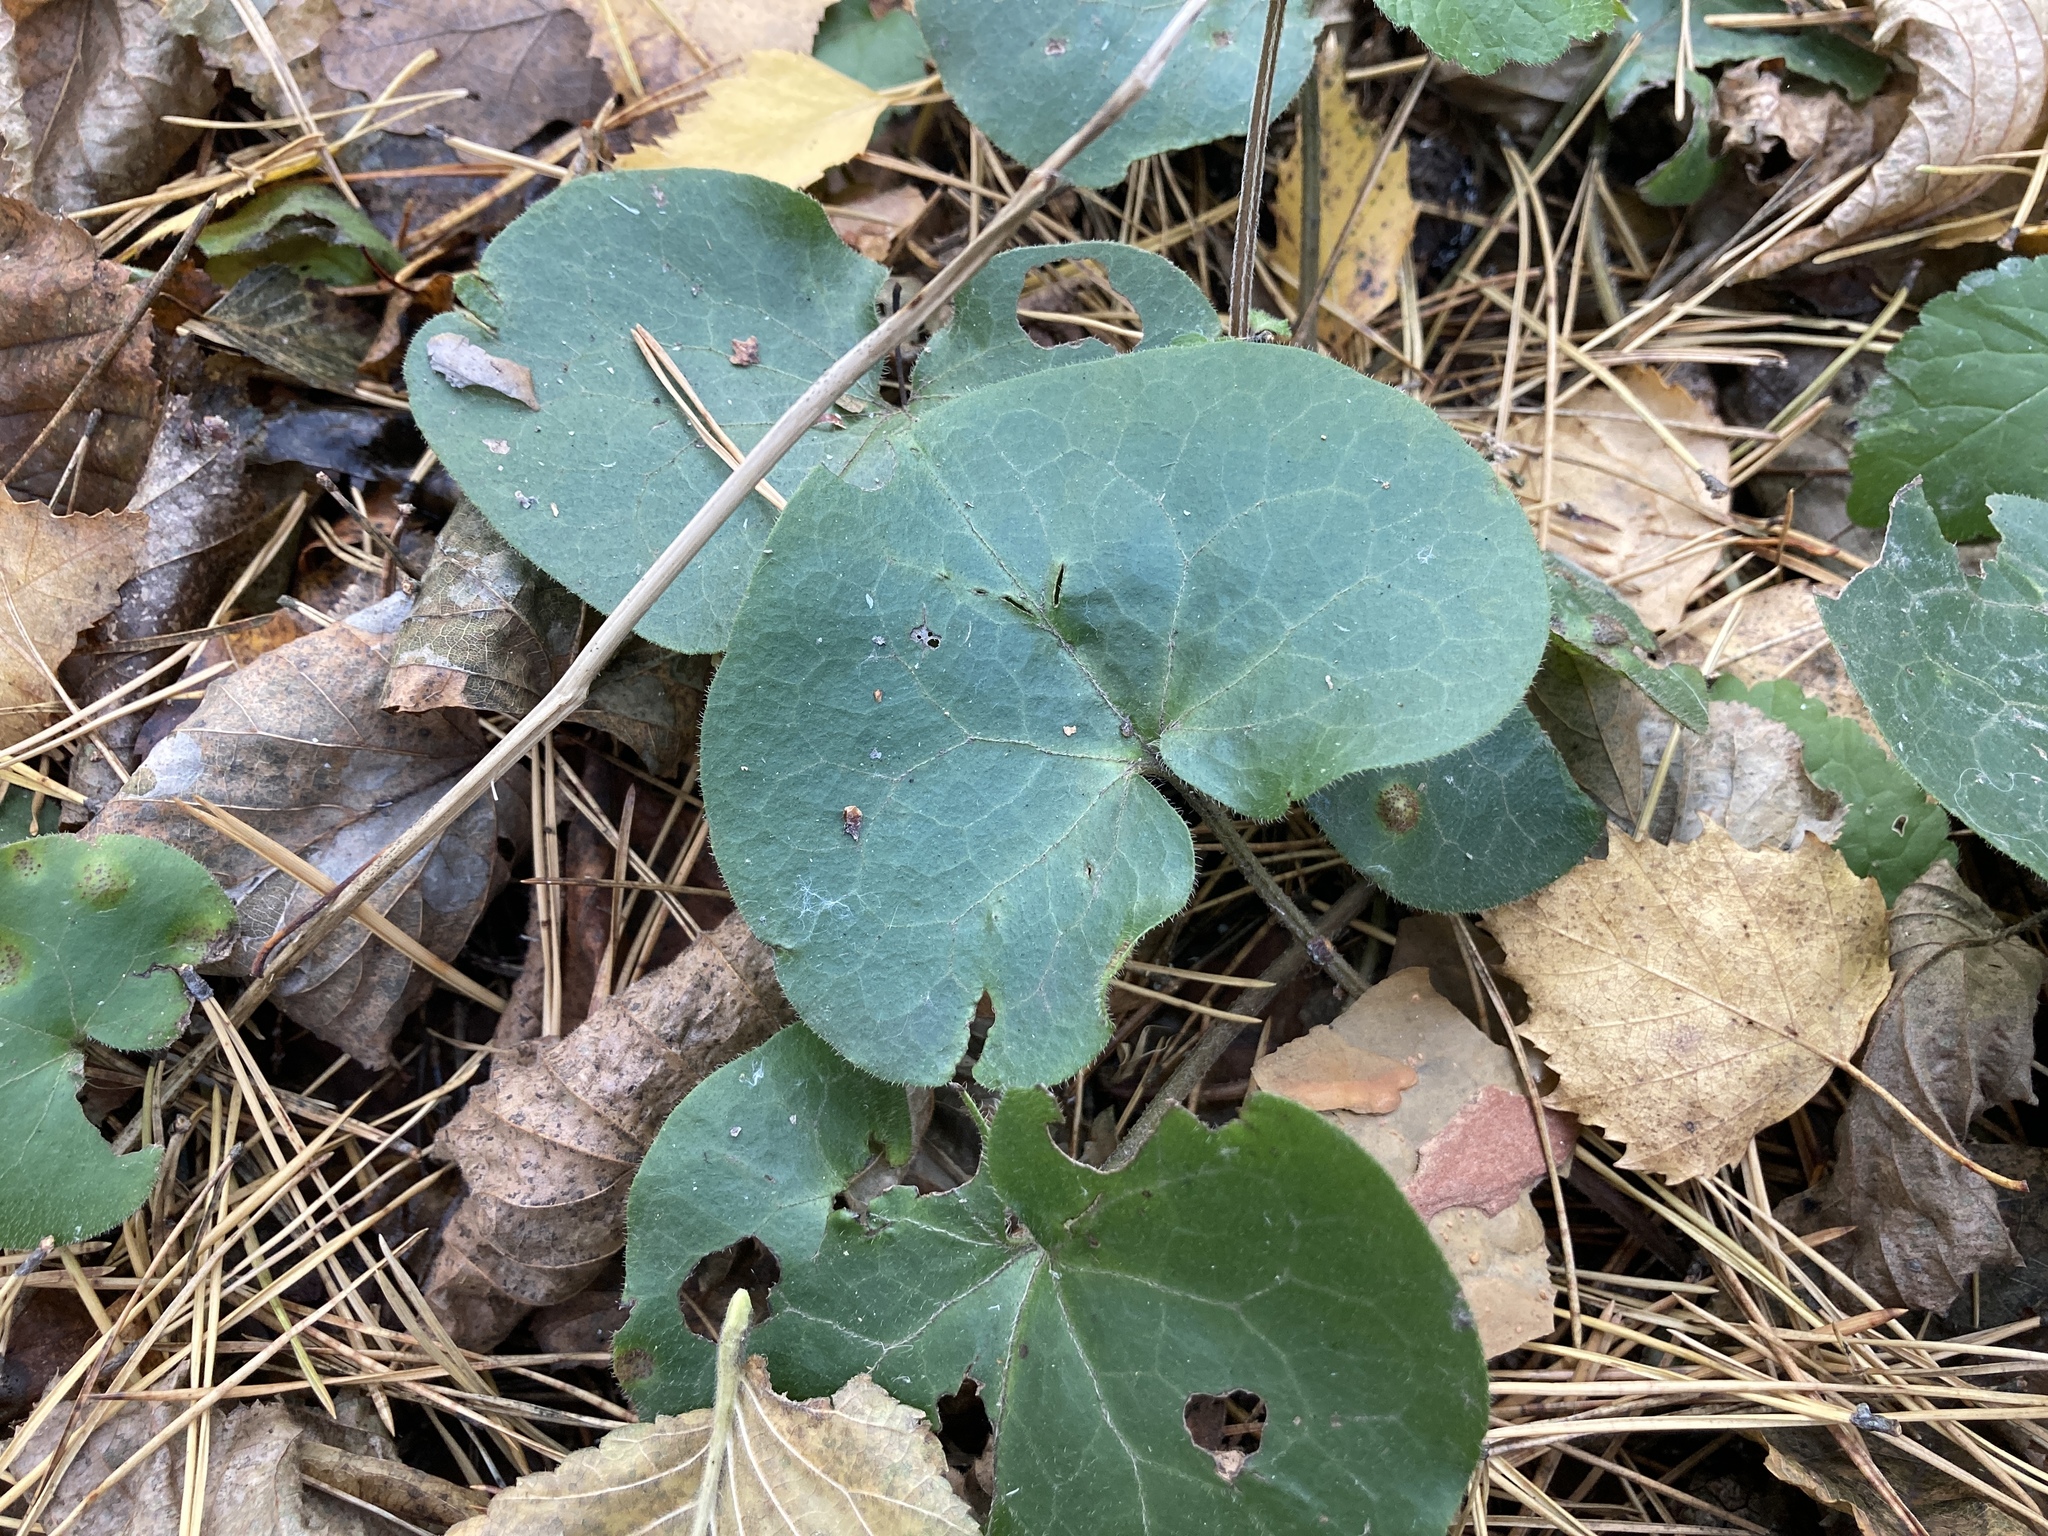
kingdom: Plantae
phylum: Tracheophyta
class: Magnoliopsida
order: Piperales
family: Aristolochiaceae
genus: Asarum
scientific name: Asarum europaeum
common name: Asarabacca
